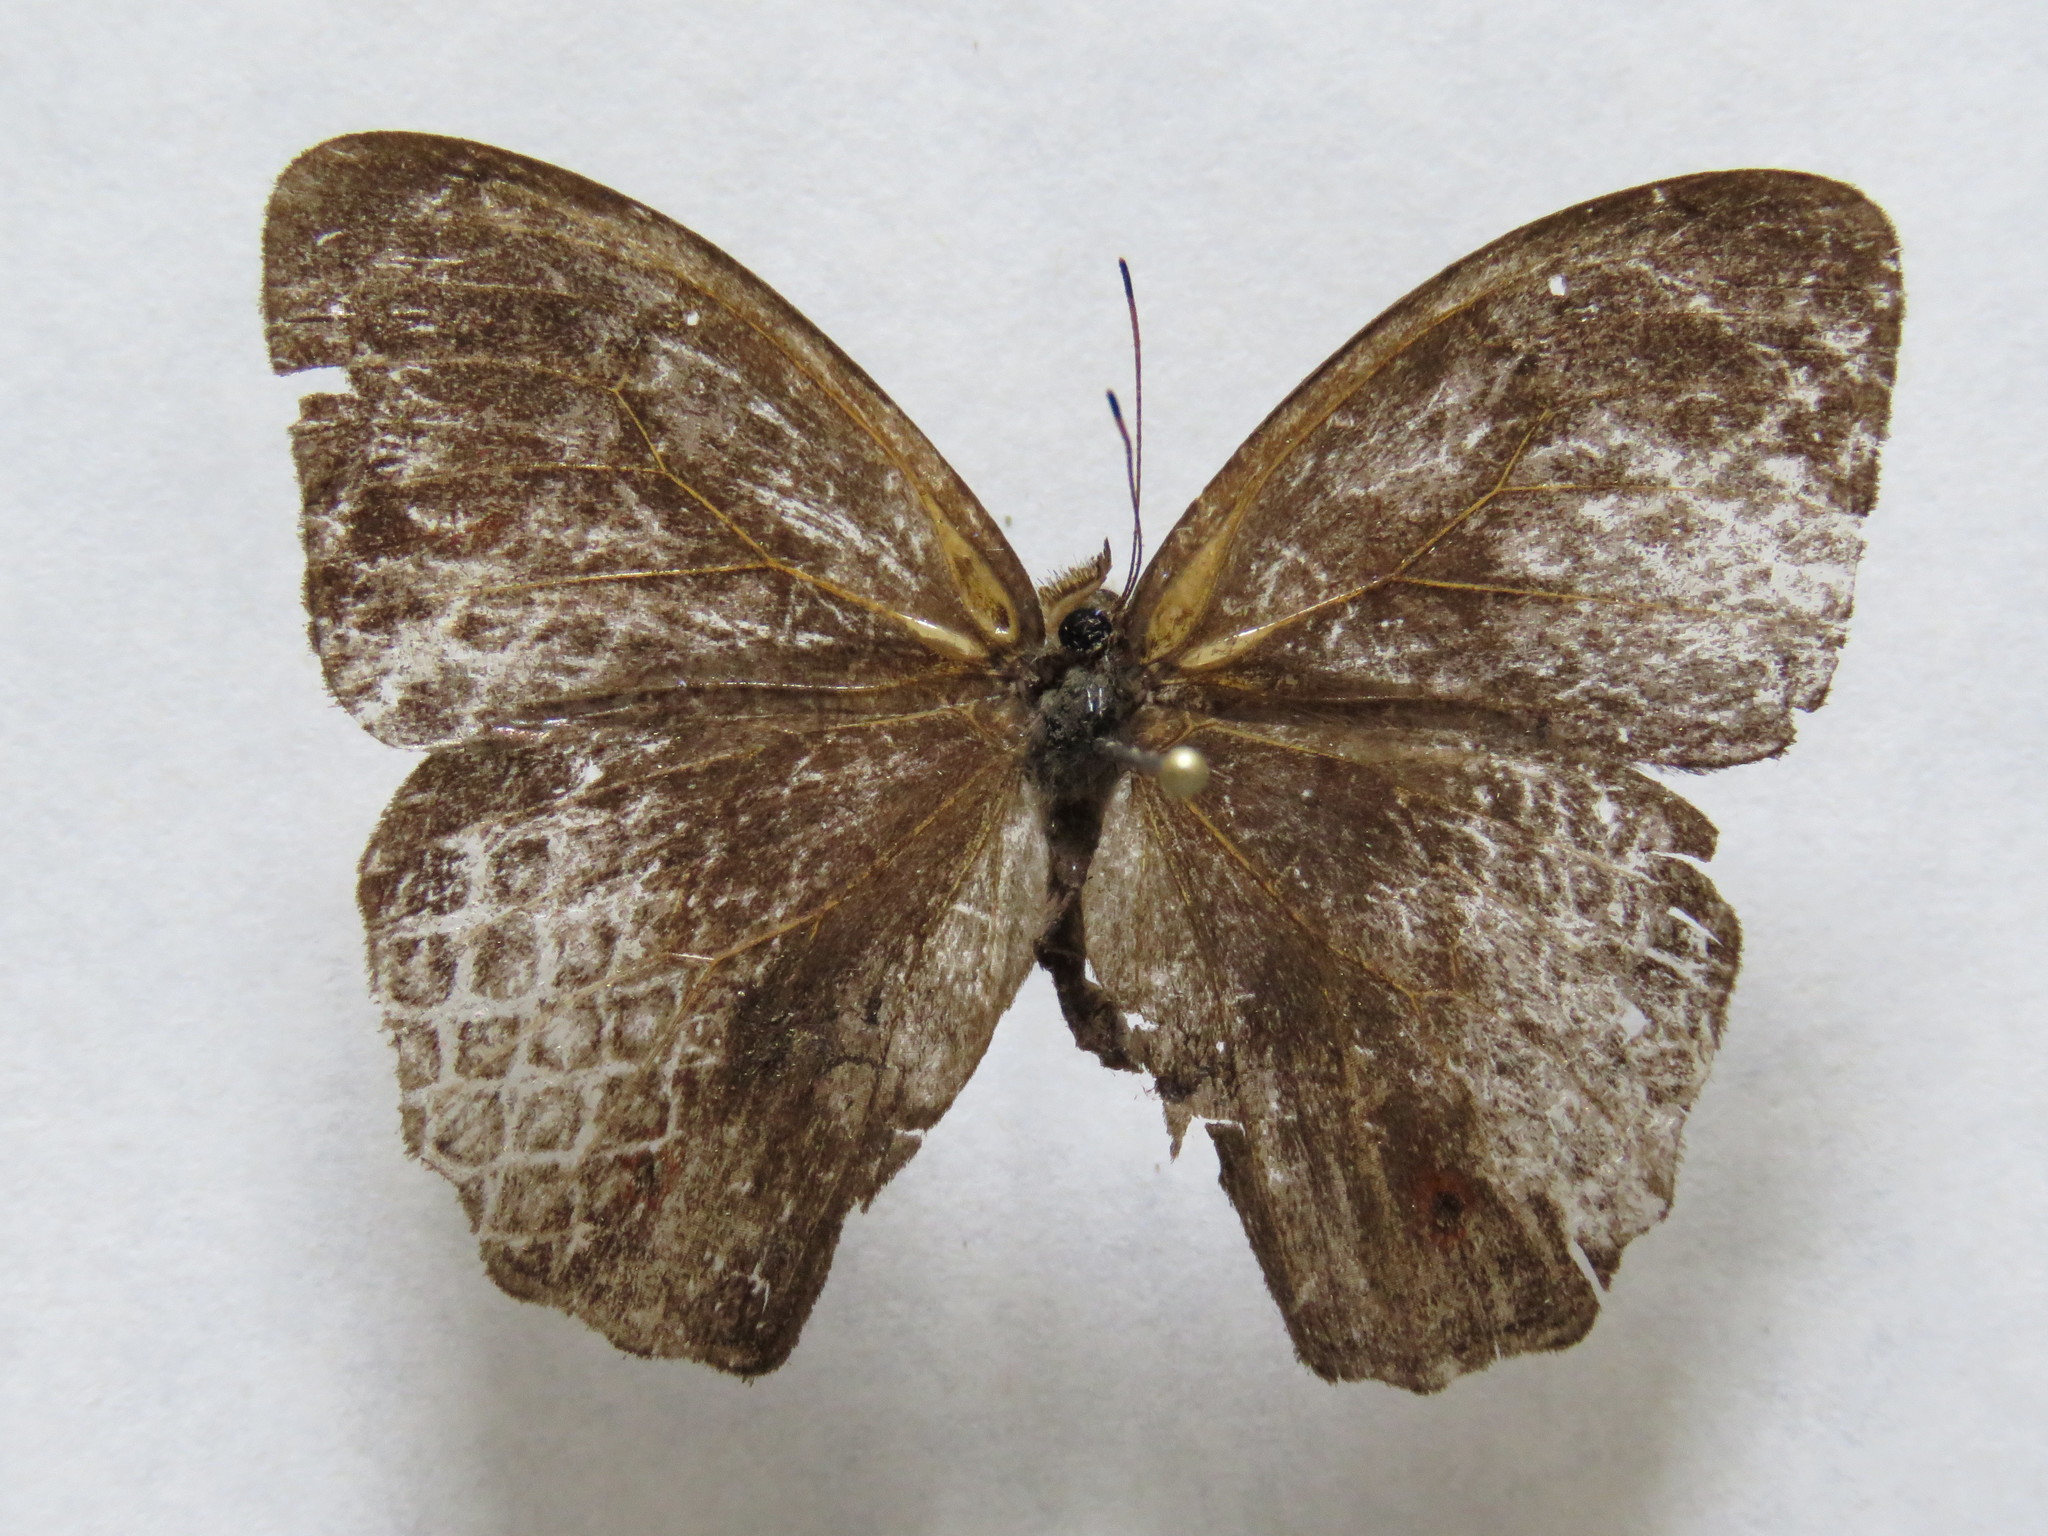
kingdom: Animalia
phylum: Arthropoda
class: Insecta
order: Lepidoptera
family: Nymphalidae
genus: Satyrotaygetis
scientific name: Satyrotaygetis satyrina
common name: Wide-bordered satyr
